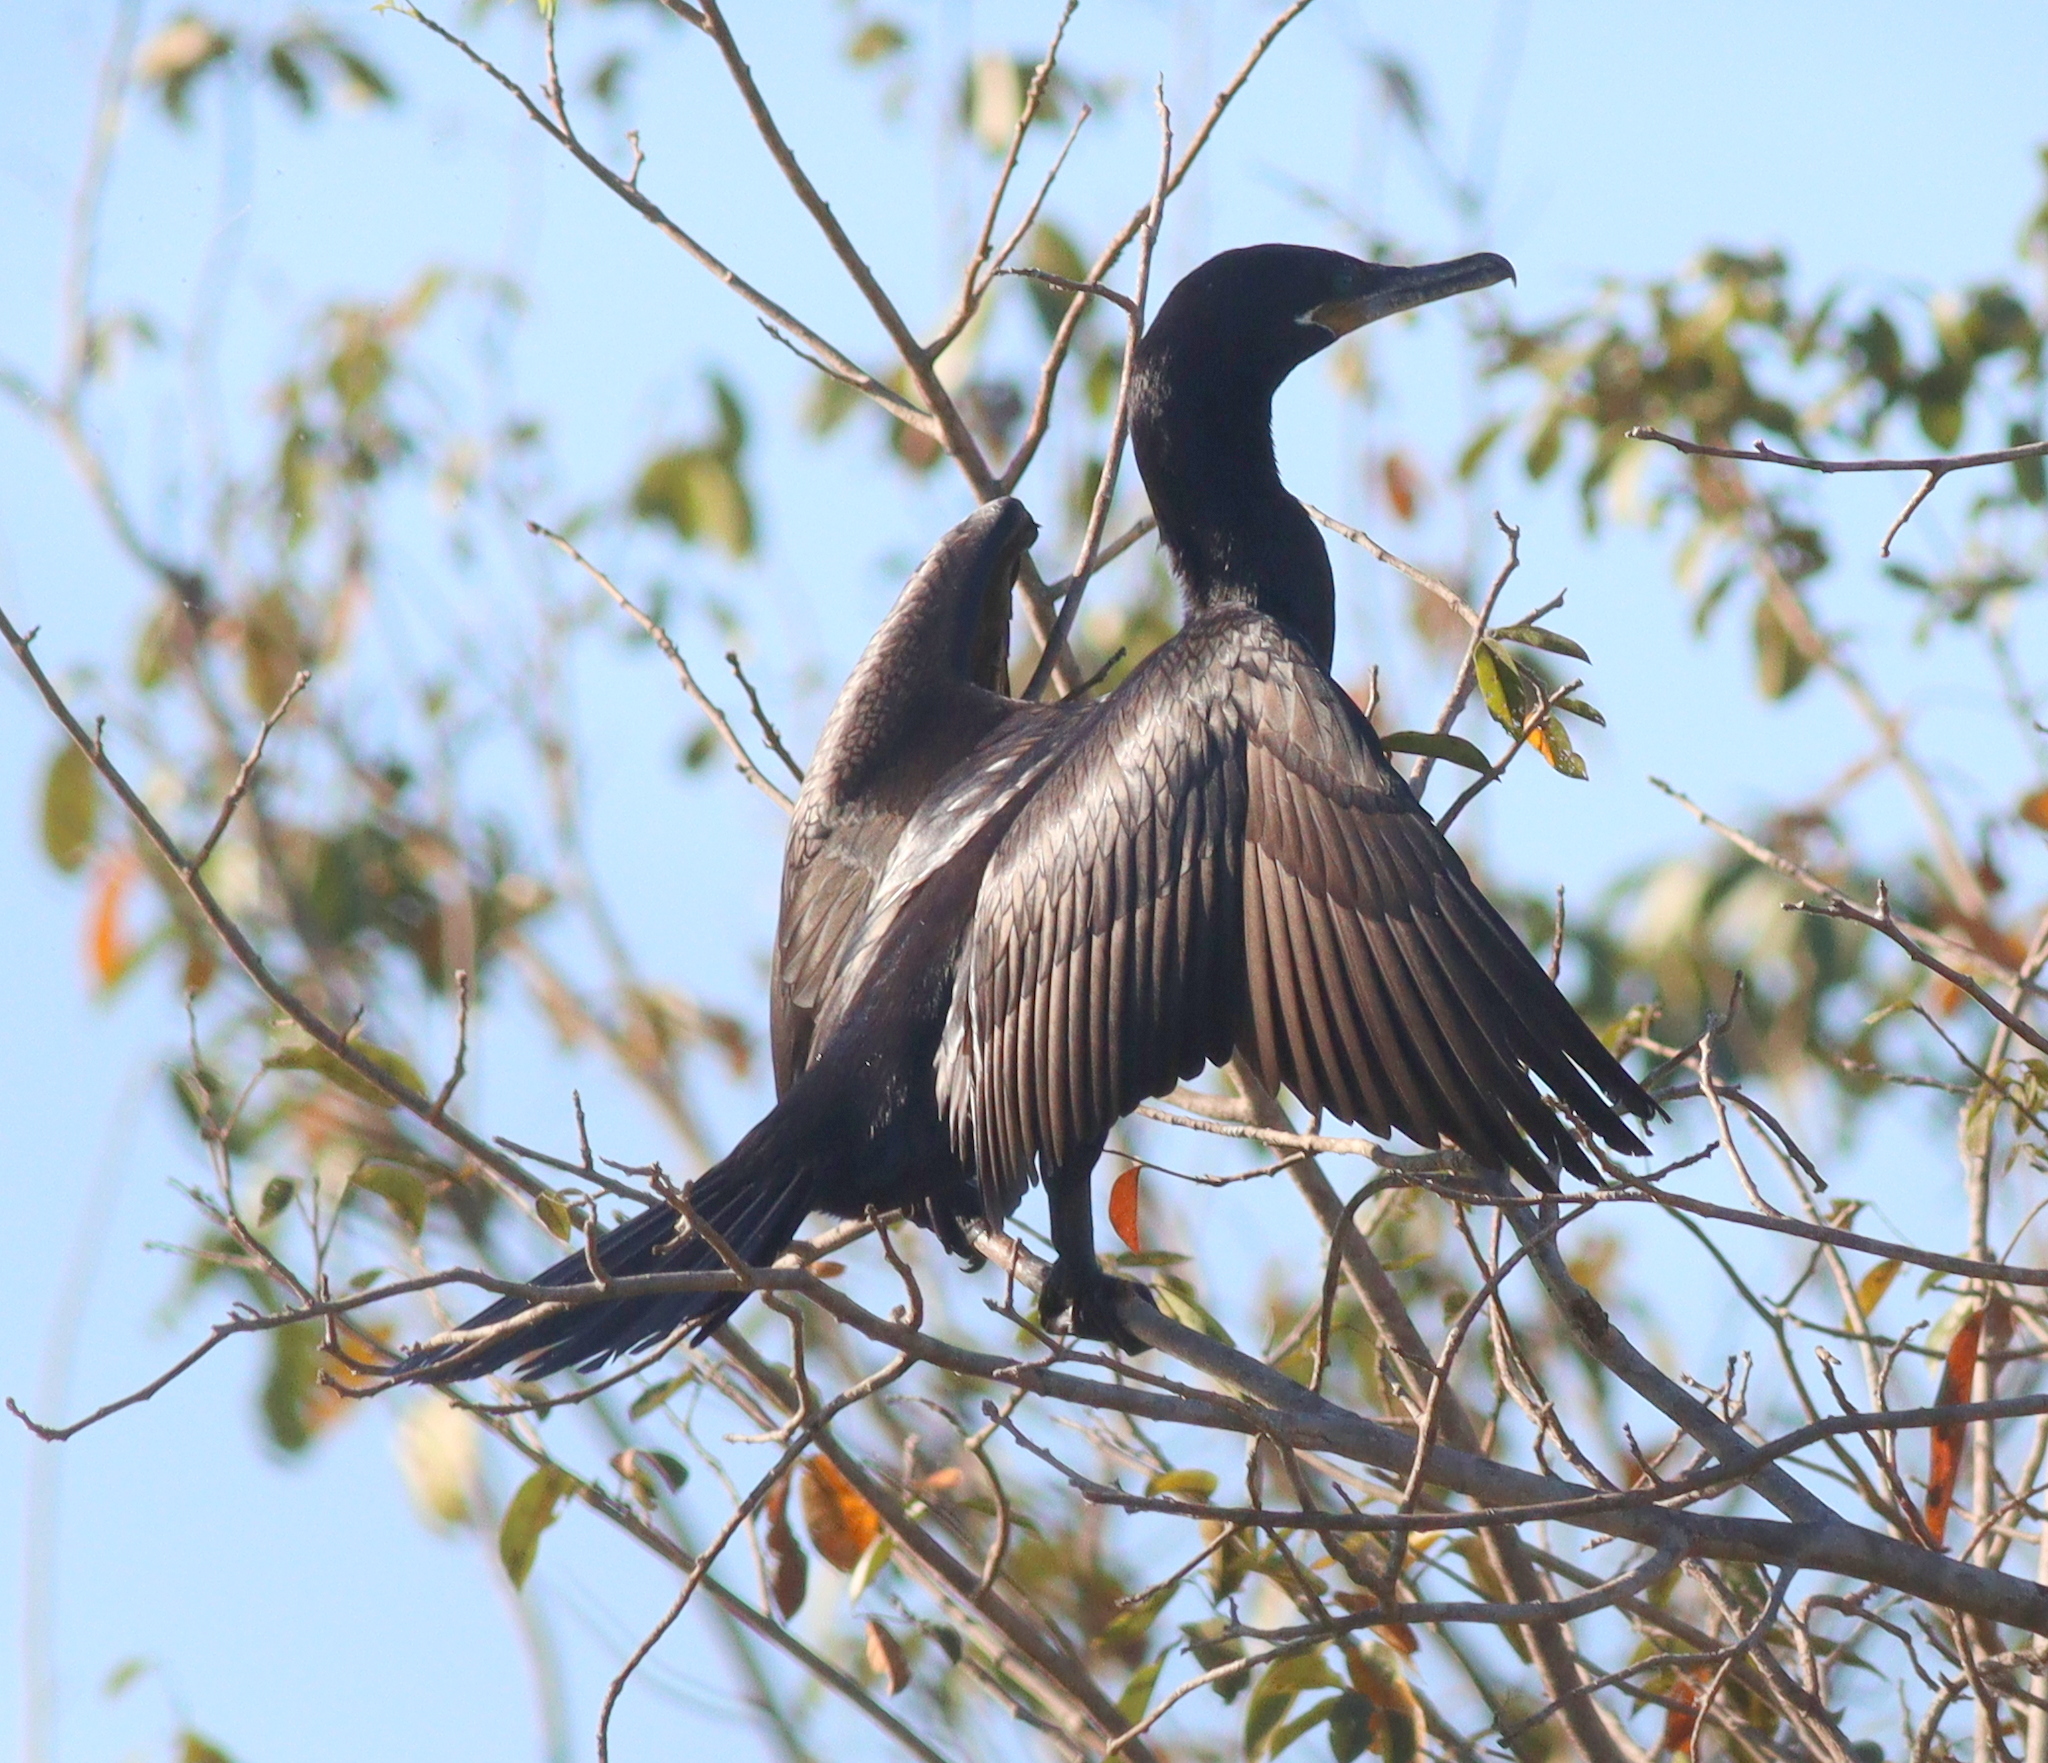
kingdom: Animalia
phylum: Chordata
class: Aves
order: Suliformes
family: Phalacrocoracidae
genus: Phalacrocorax
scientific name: Phalacrocorax brasilianus
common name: Neotropic cormorant
